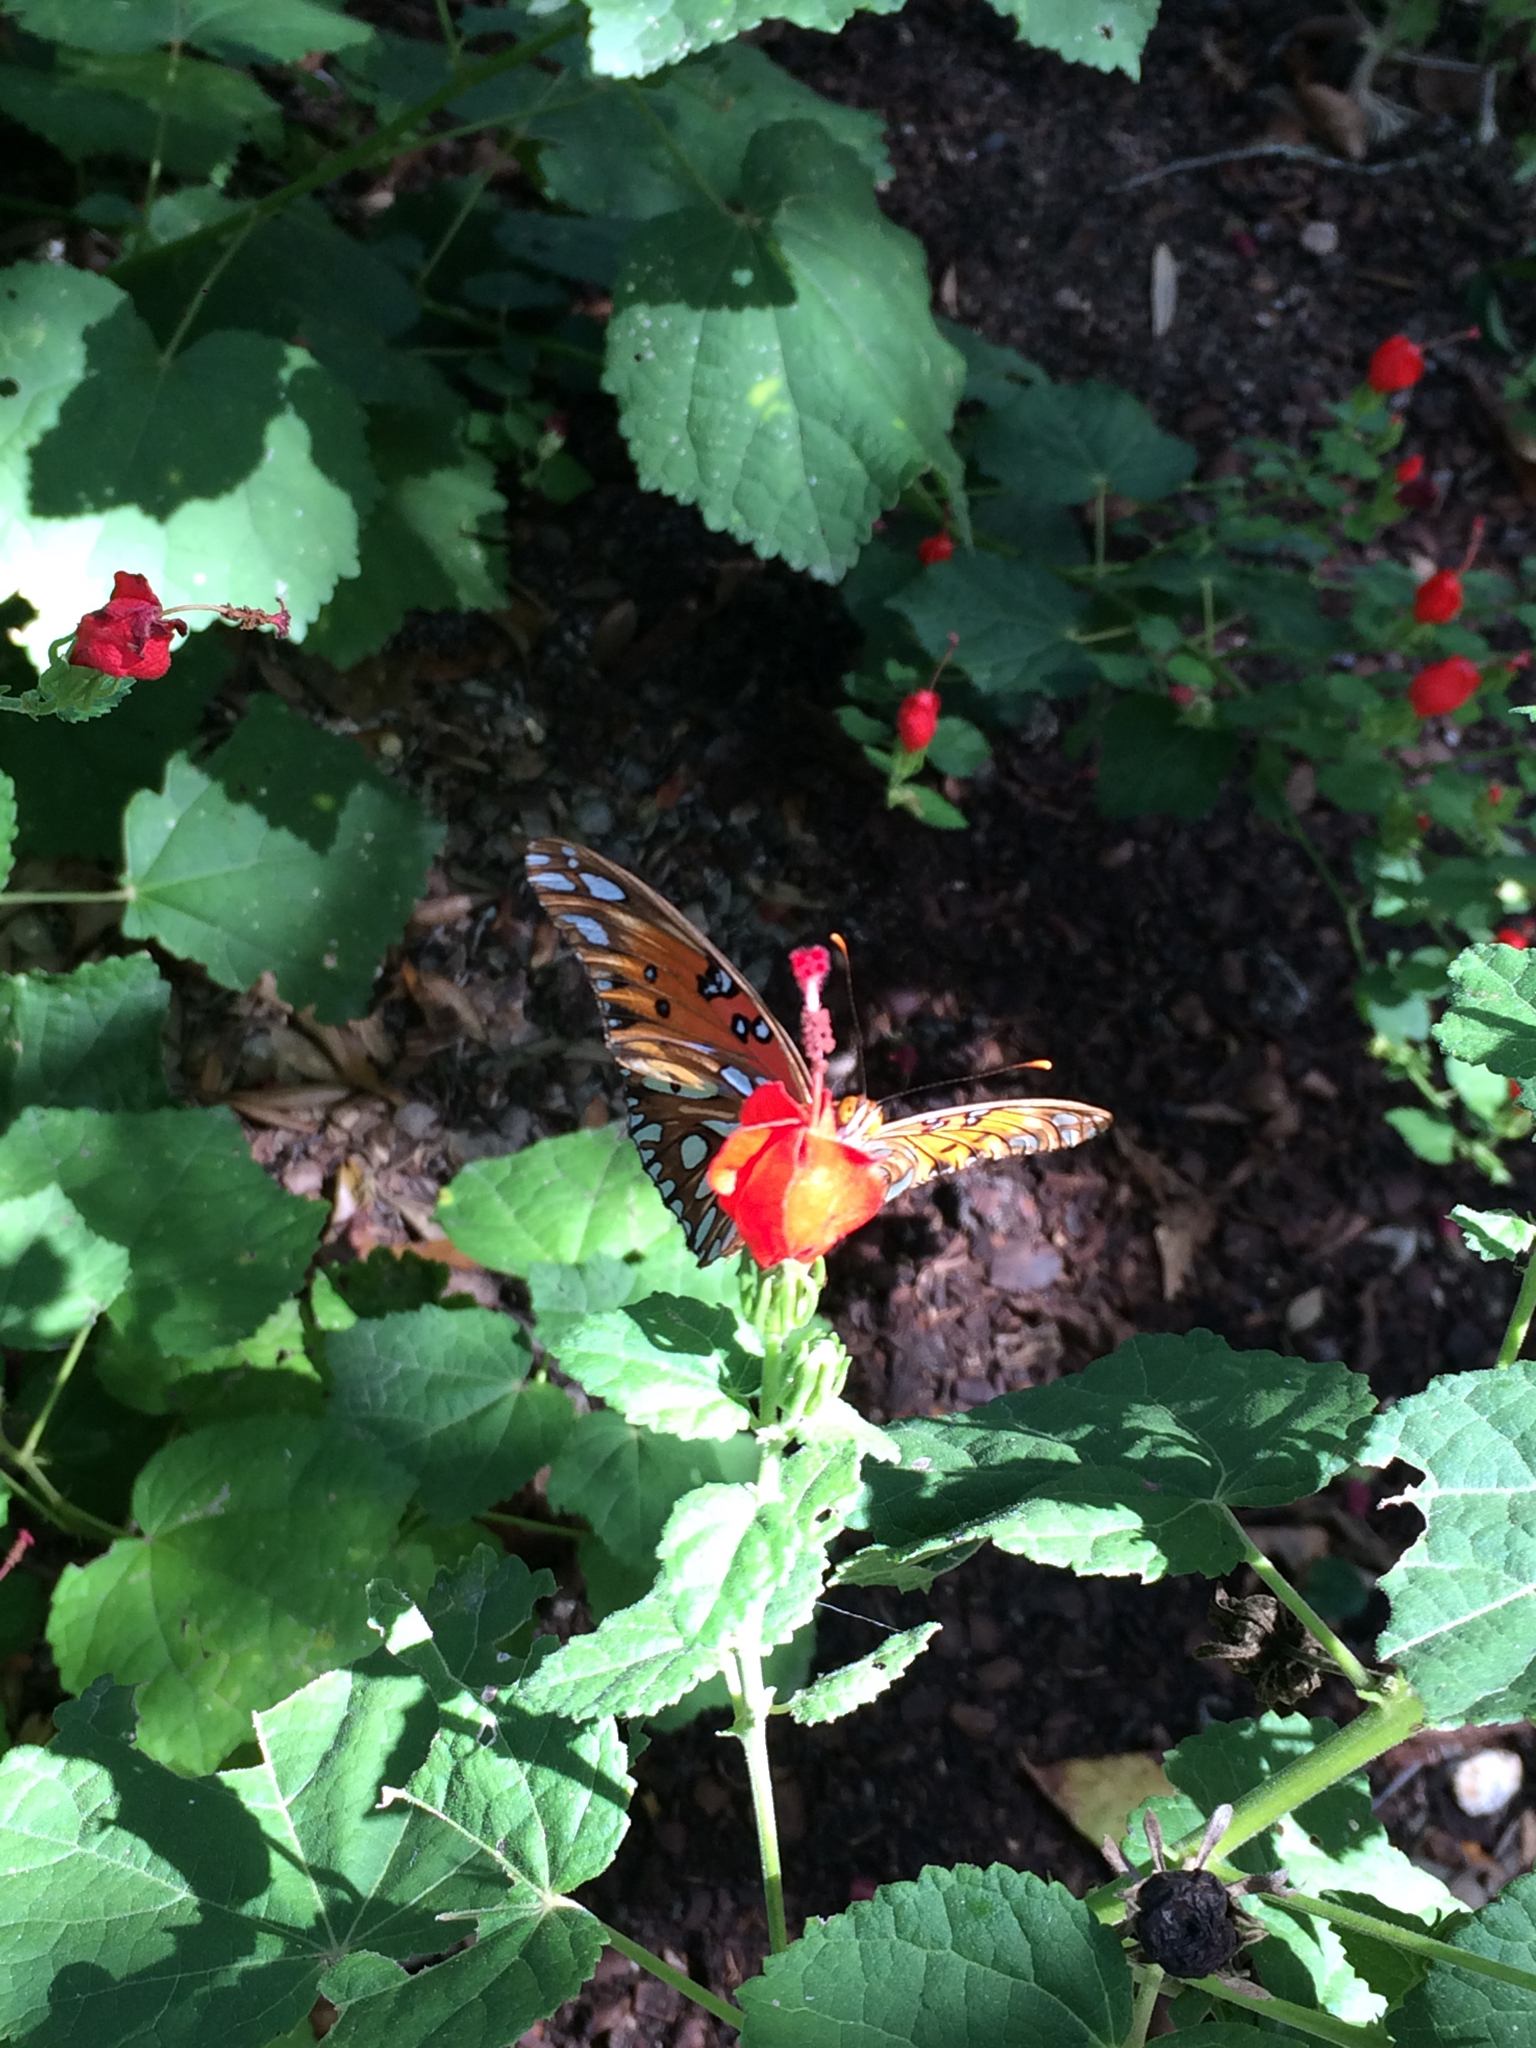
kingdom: Animalia
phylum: Arthropoda
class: Insecta
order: Lepidoptera
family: Nymphalidae
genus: Dione
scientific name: Dione vanillae
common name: Gulf fritillary
